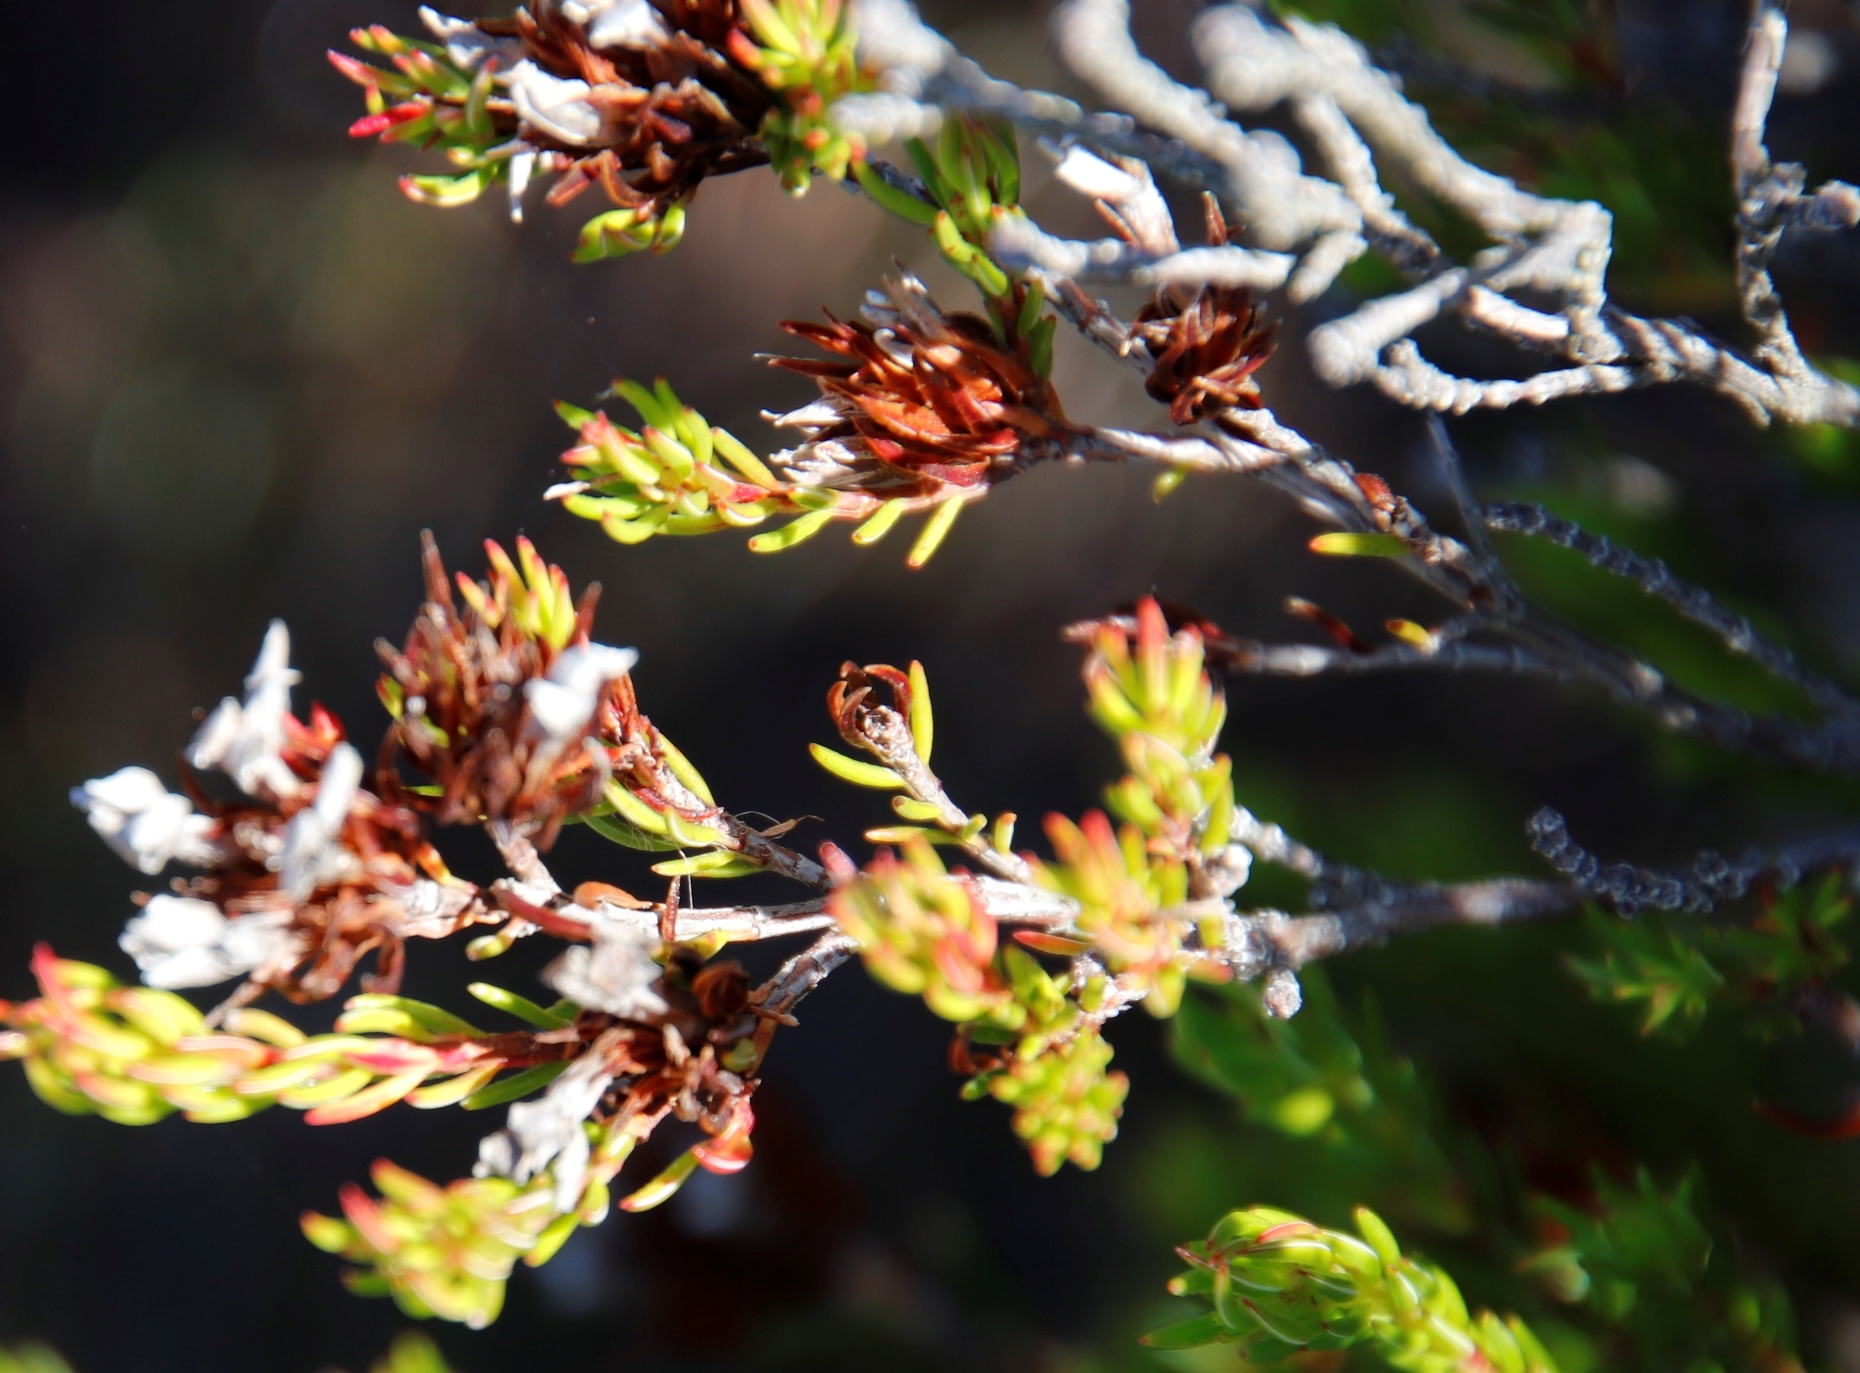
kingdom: Plantae
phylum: Tracheophyta
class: Magnoliopsida
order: Ericales
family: Ericaceae
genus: Erica
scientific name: Erica fastigiata
